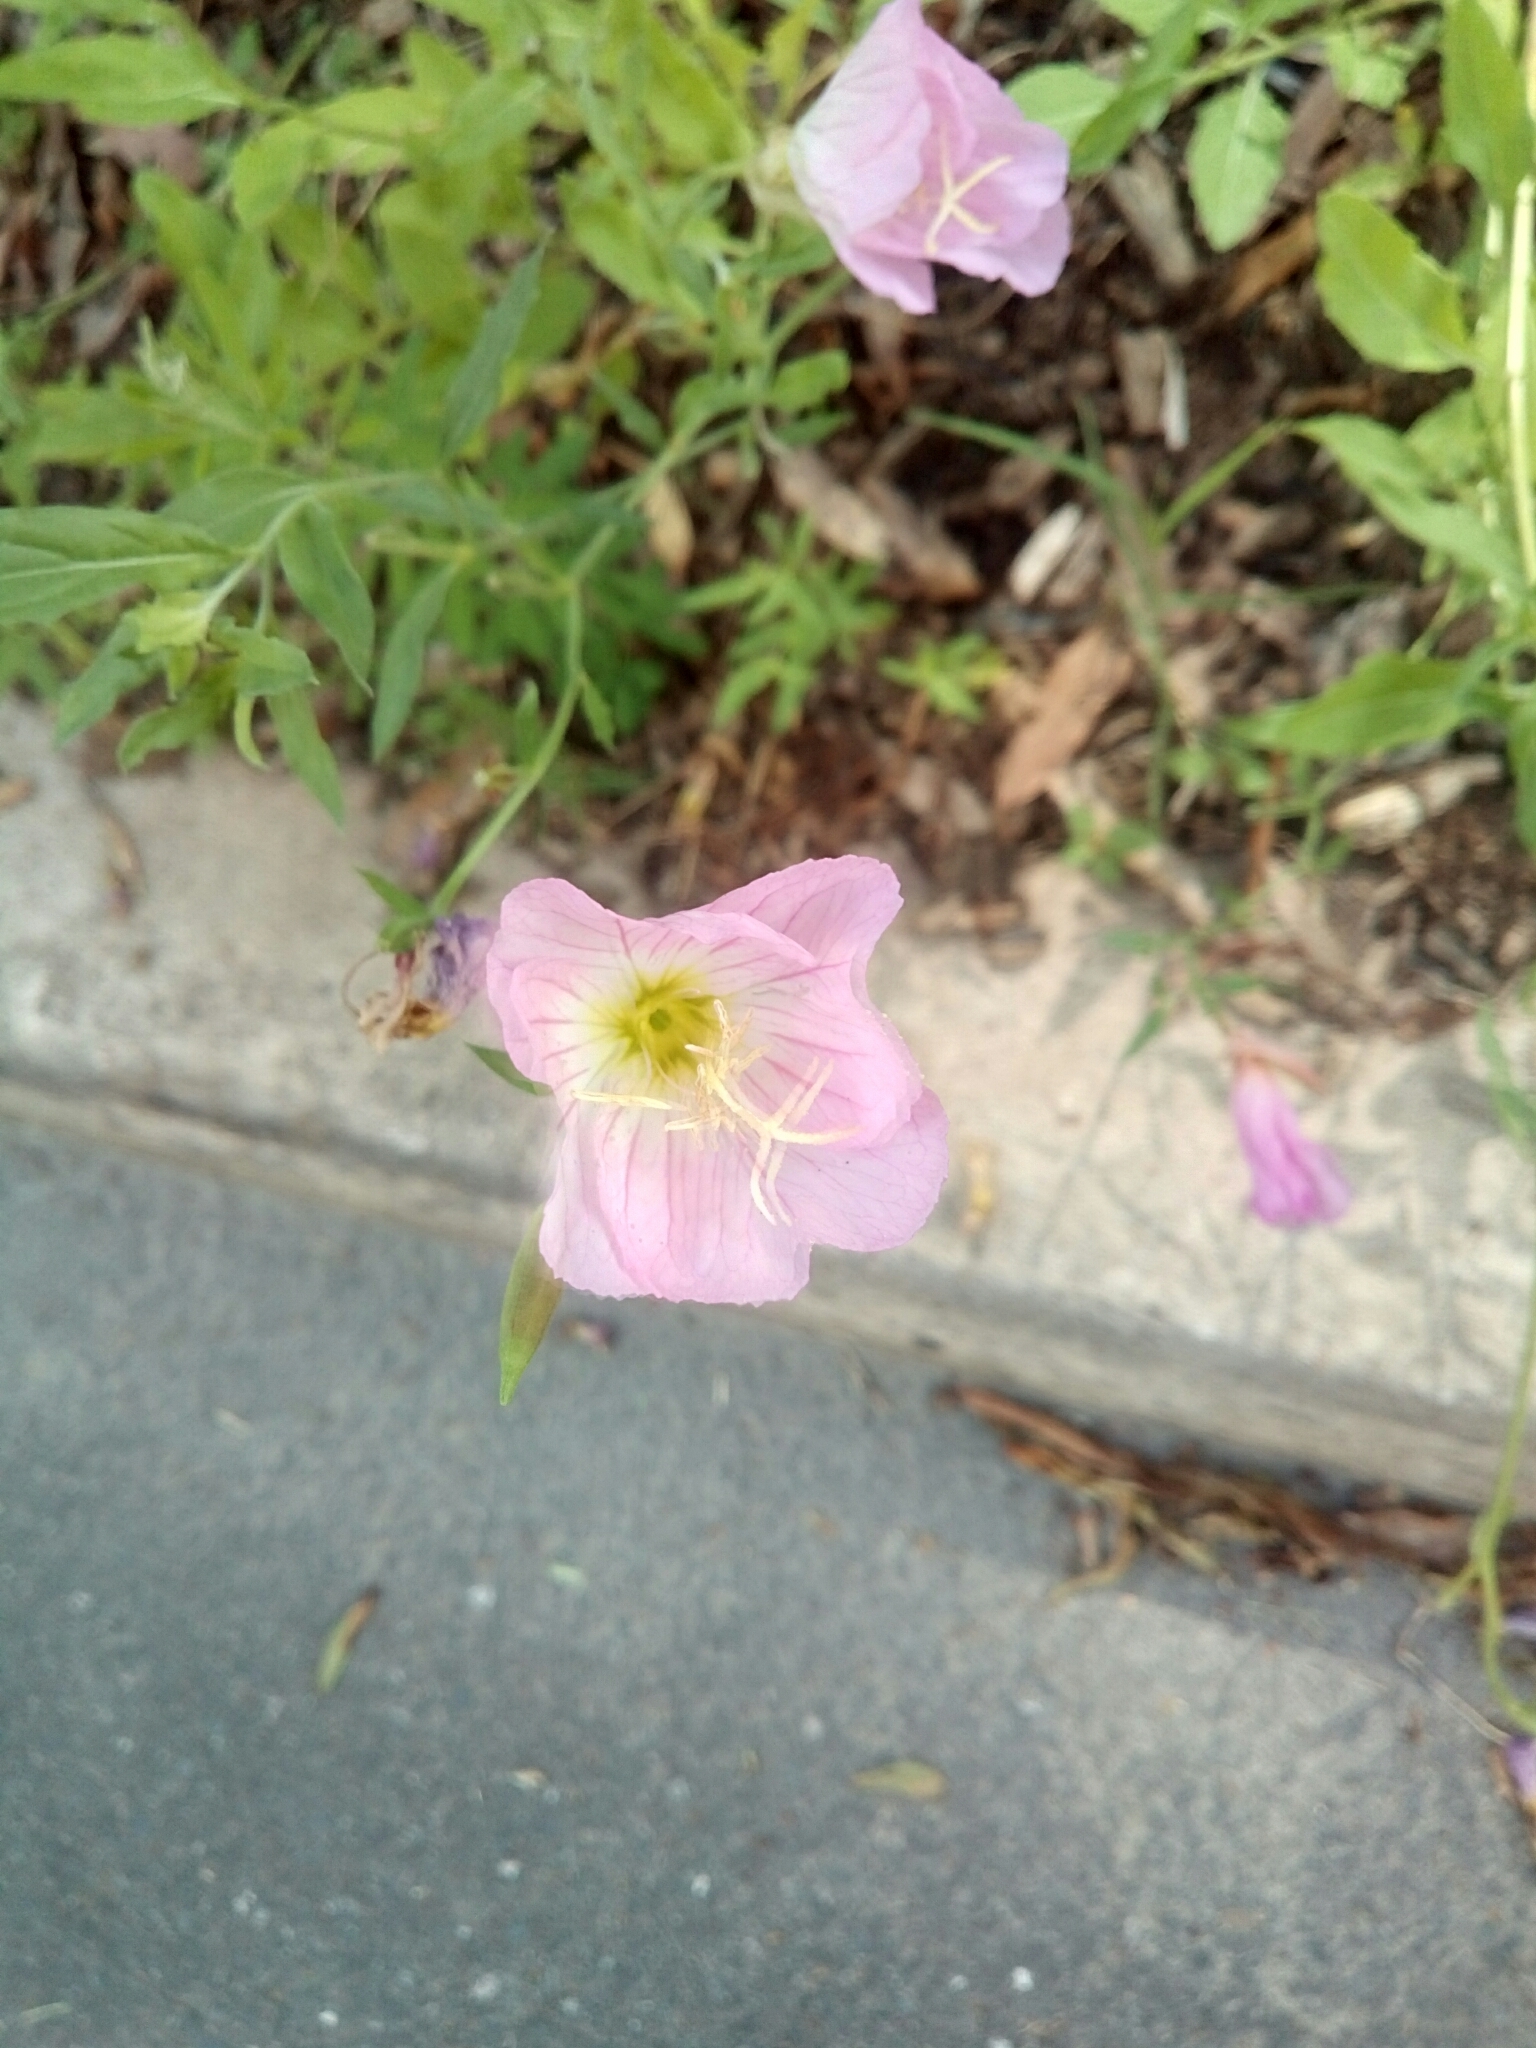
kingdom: Plantae
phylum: Tracheophyta
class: Magnoliopsida
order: Myrtales
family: Onagraceae
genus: Oenothera
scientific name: Oenothera speciosa
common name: White evening-primrose
